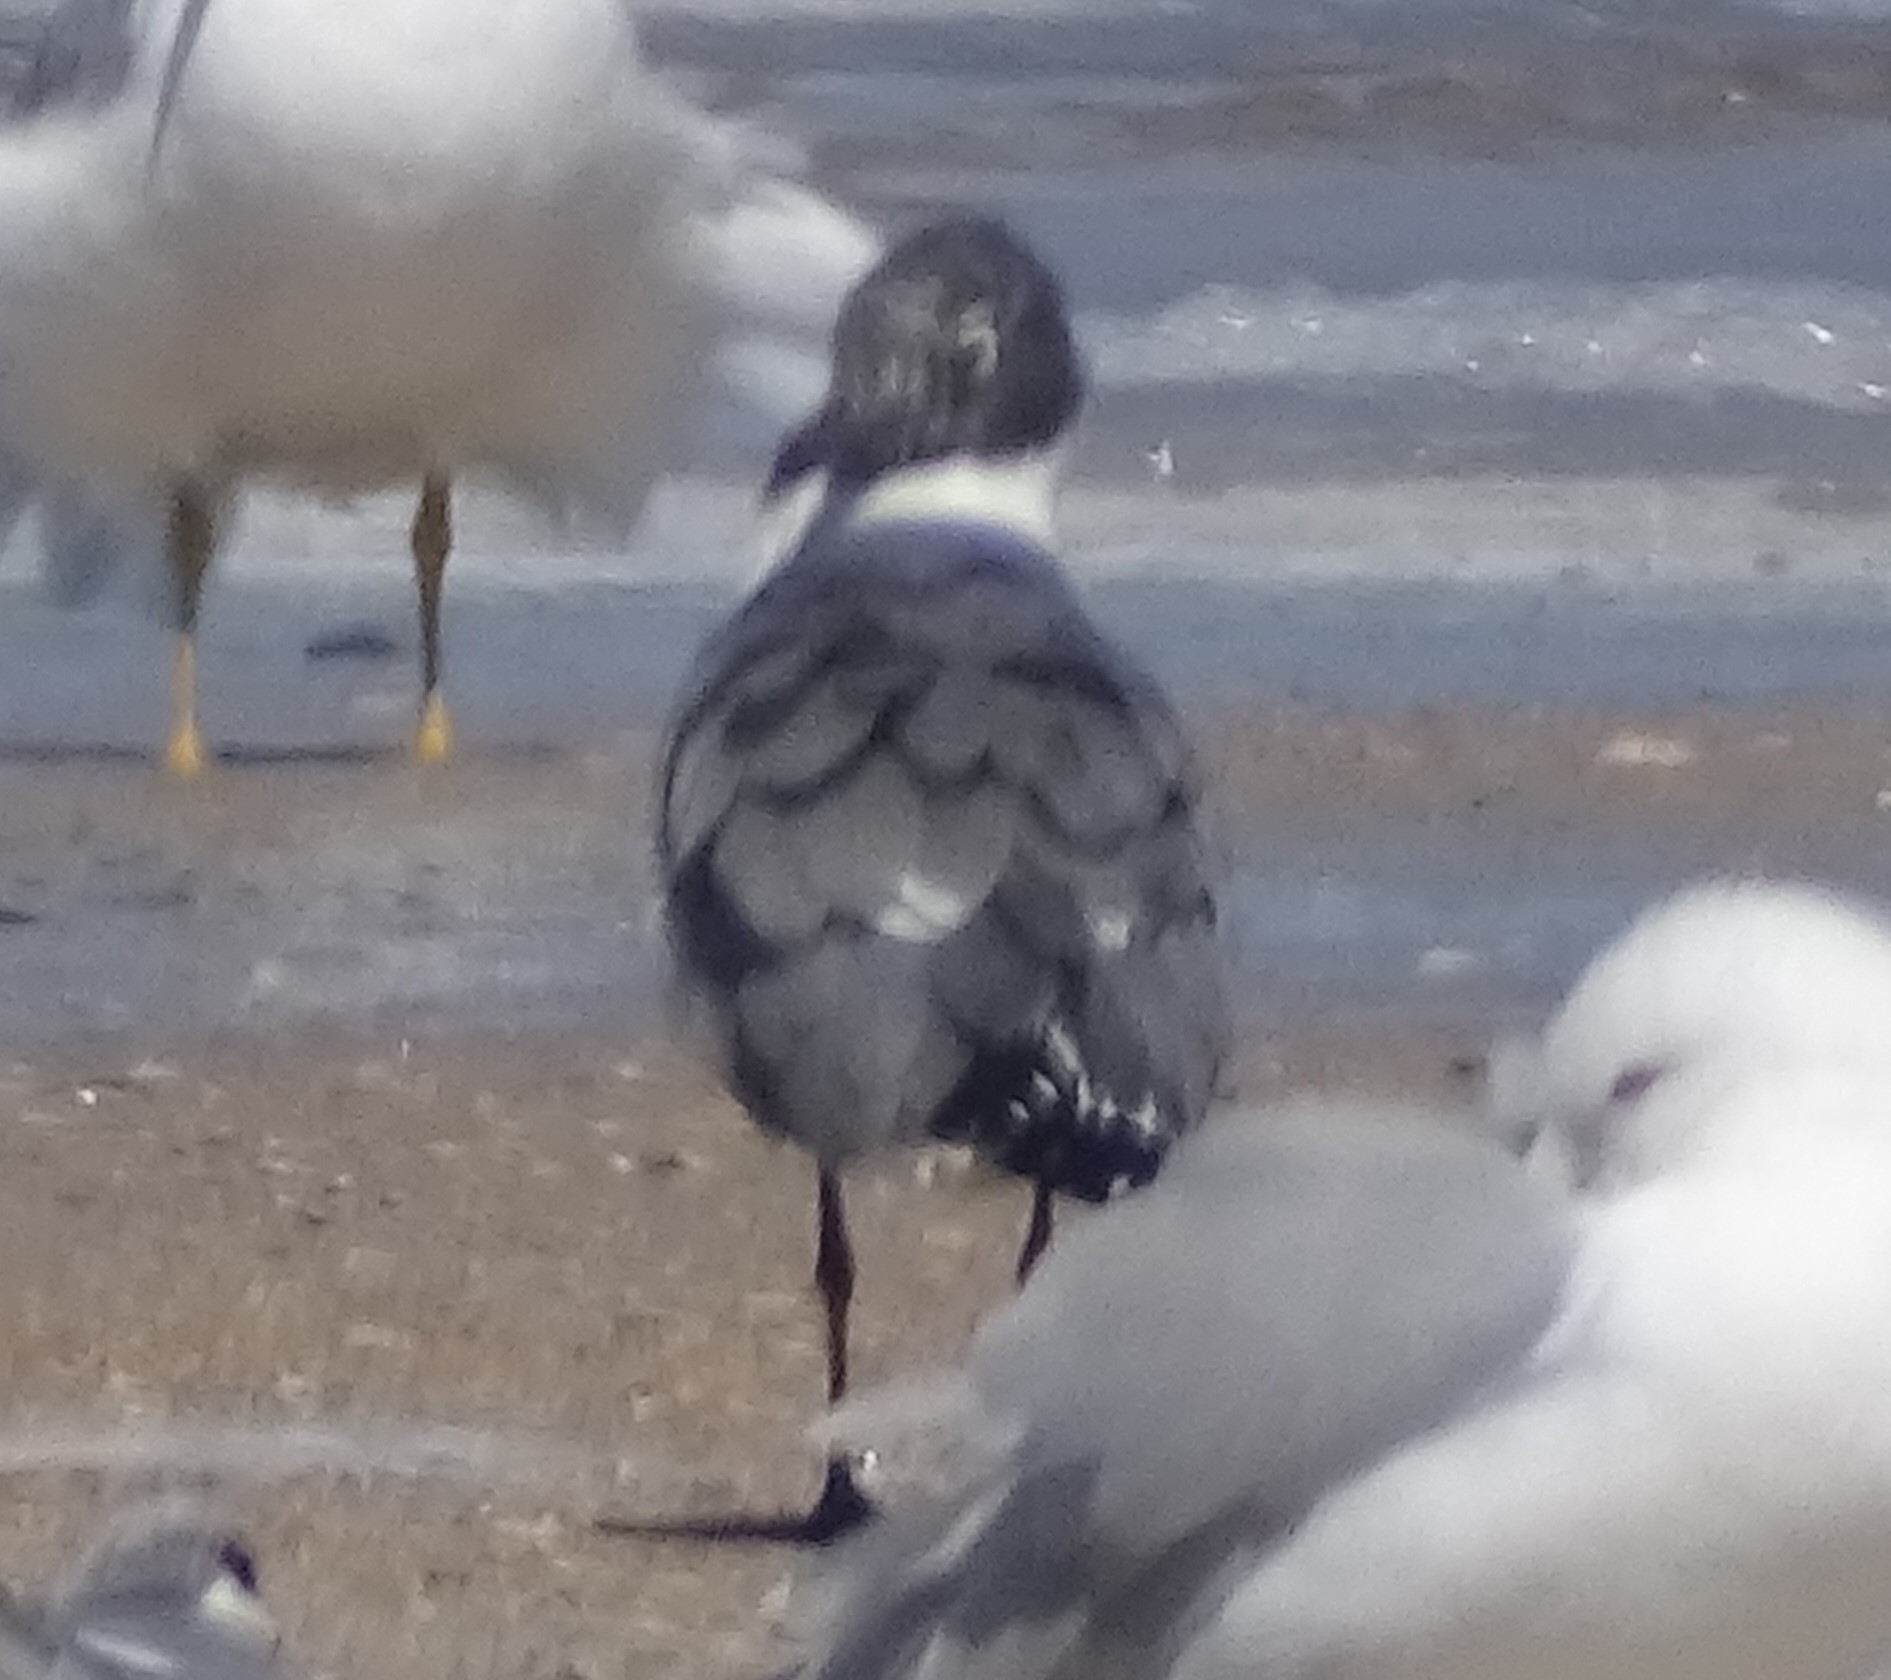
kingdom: Animalia
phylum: Chordata
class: Aves
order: Charadriiformes
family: Laridae
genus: Leucophaeus
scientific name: Leucophaeus atricilla
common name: Laughing gull
